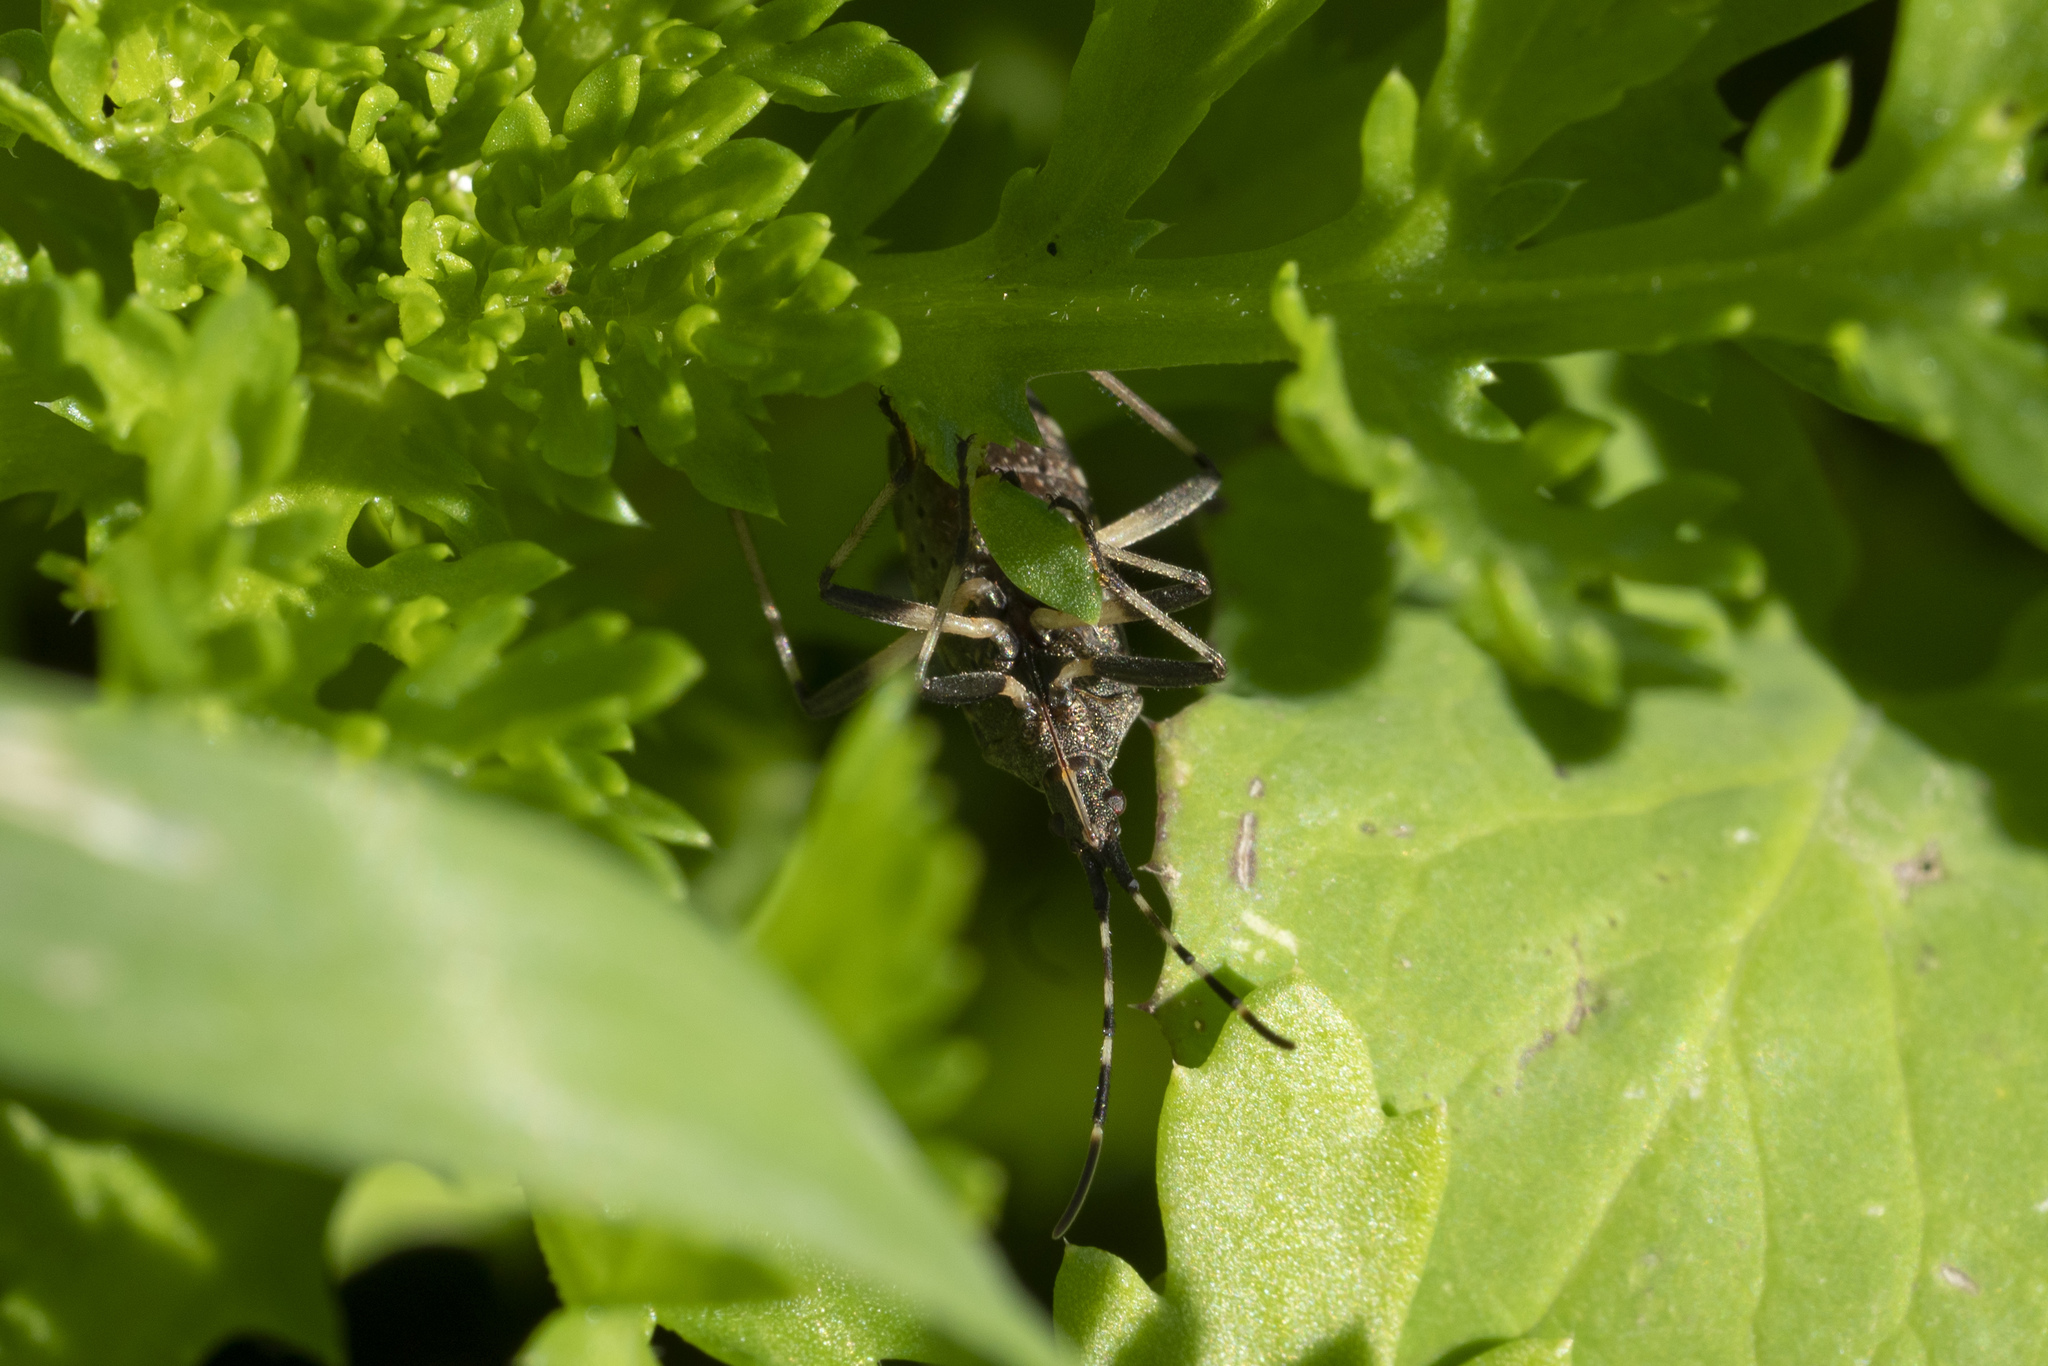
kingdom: Animalia
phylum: Arthropoda
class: Insecta
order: Hemiptera
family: Stenocephalidae
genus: Dicranocephalus
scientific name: Dicranocephalus agilis
